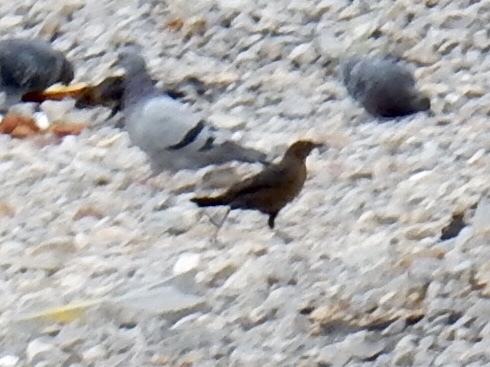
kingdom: Animalia
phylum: Chordata
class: Aves
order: Columbiformes
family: Columbidae
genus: Columba
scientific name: Columba livia
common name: Rock pigeon
